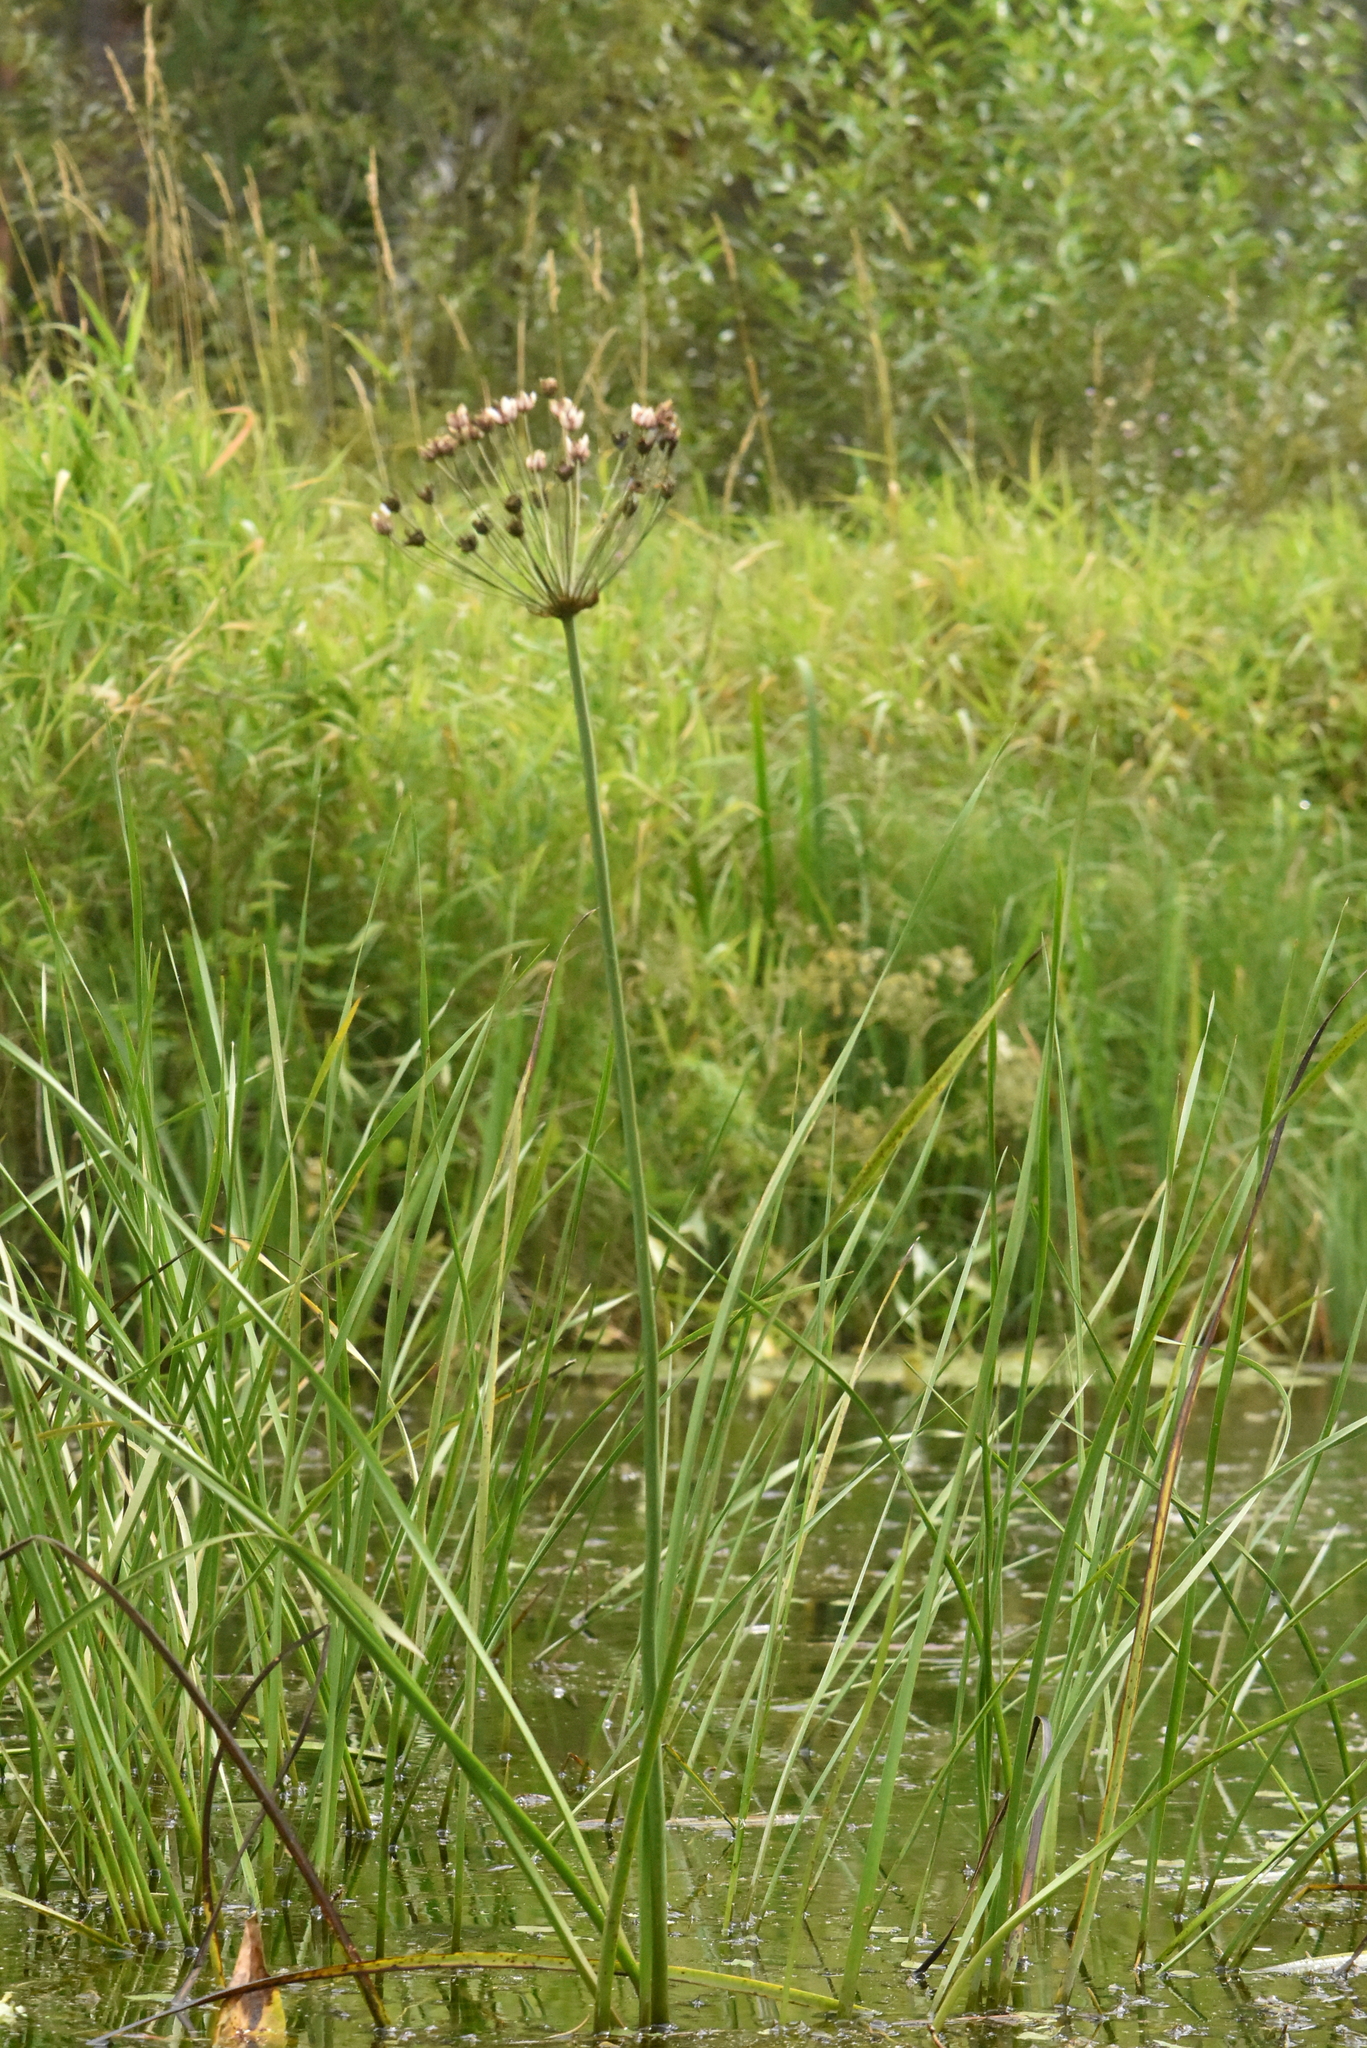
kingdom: Plantae
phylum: Tracheophyta
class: Liliopsida
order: Alismatales
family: Butomaceae
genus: Butomus
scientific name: Butomus umbellatus
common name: Flowering-rush
